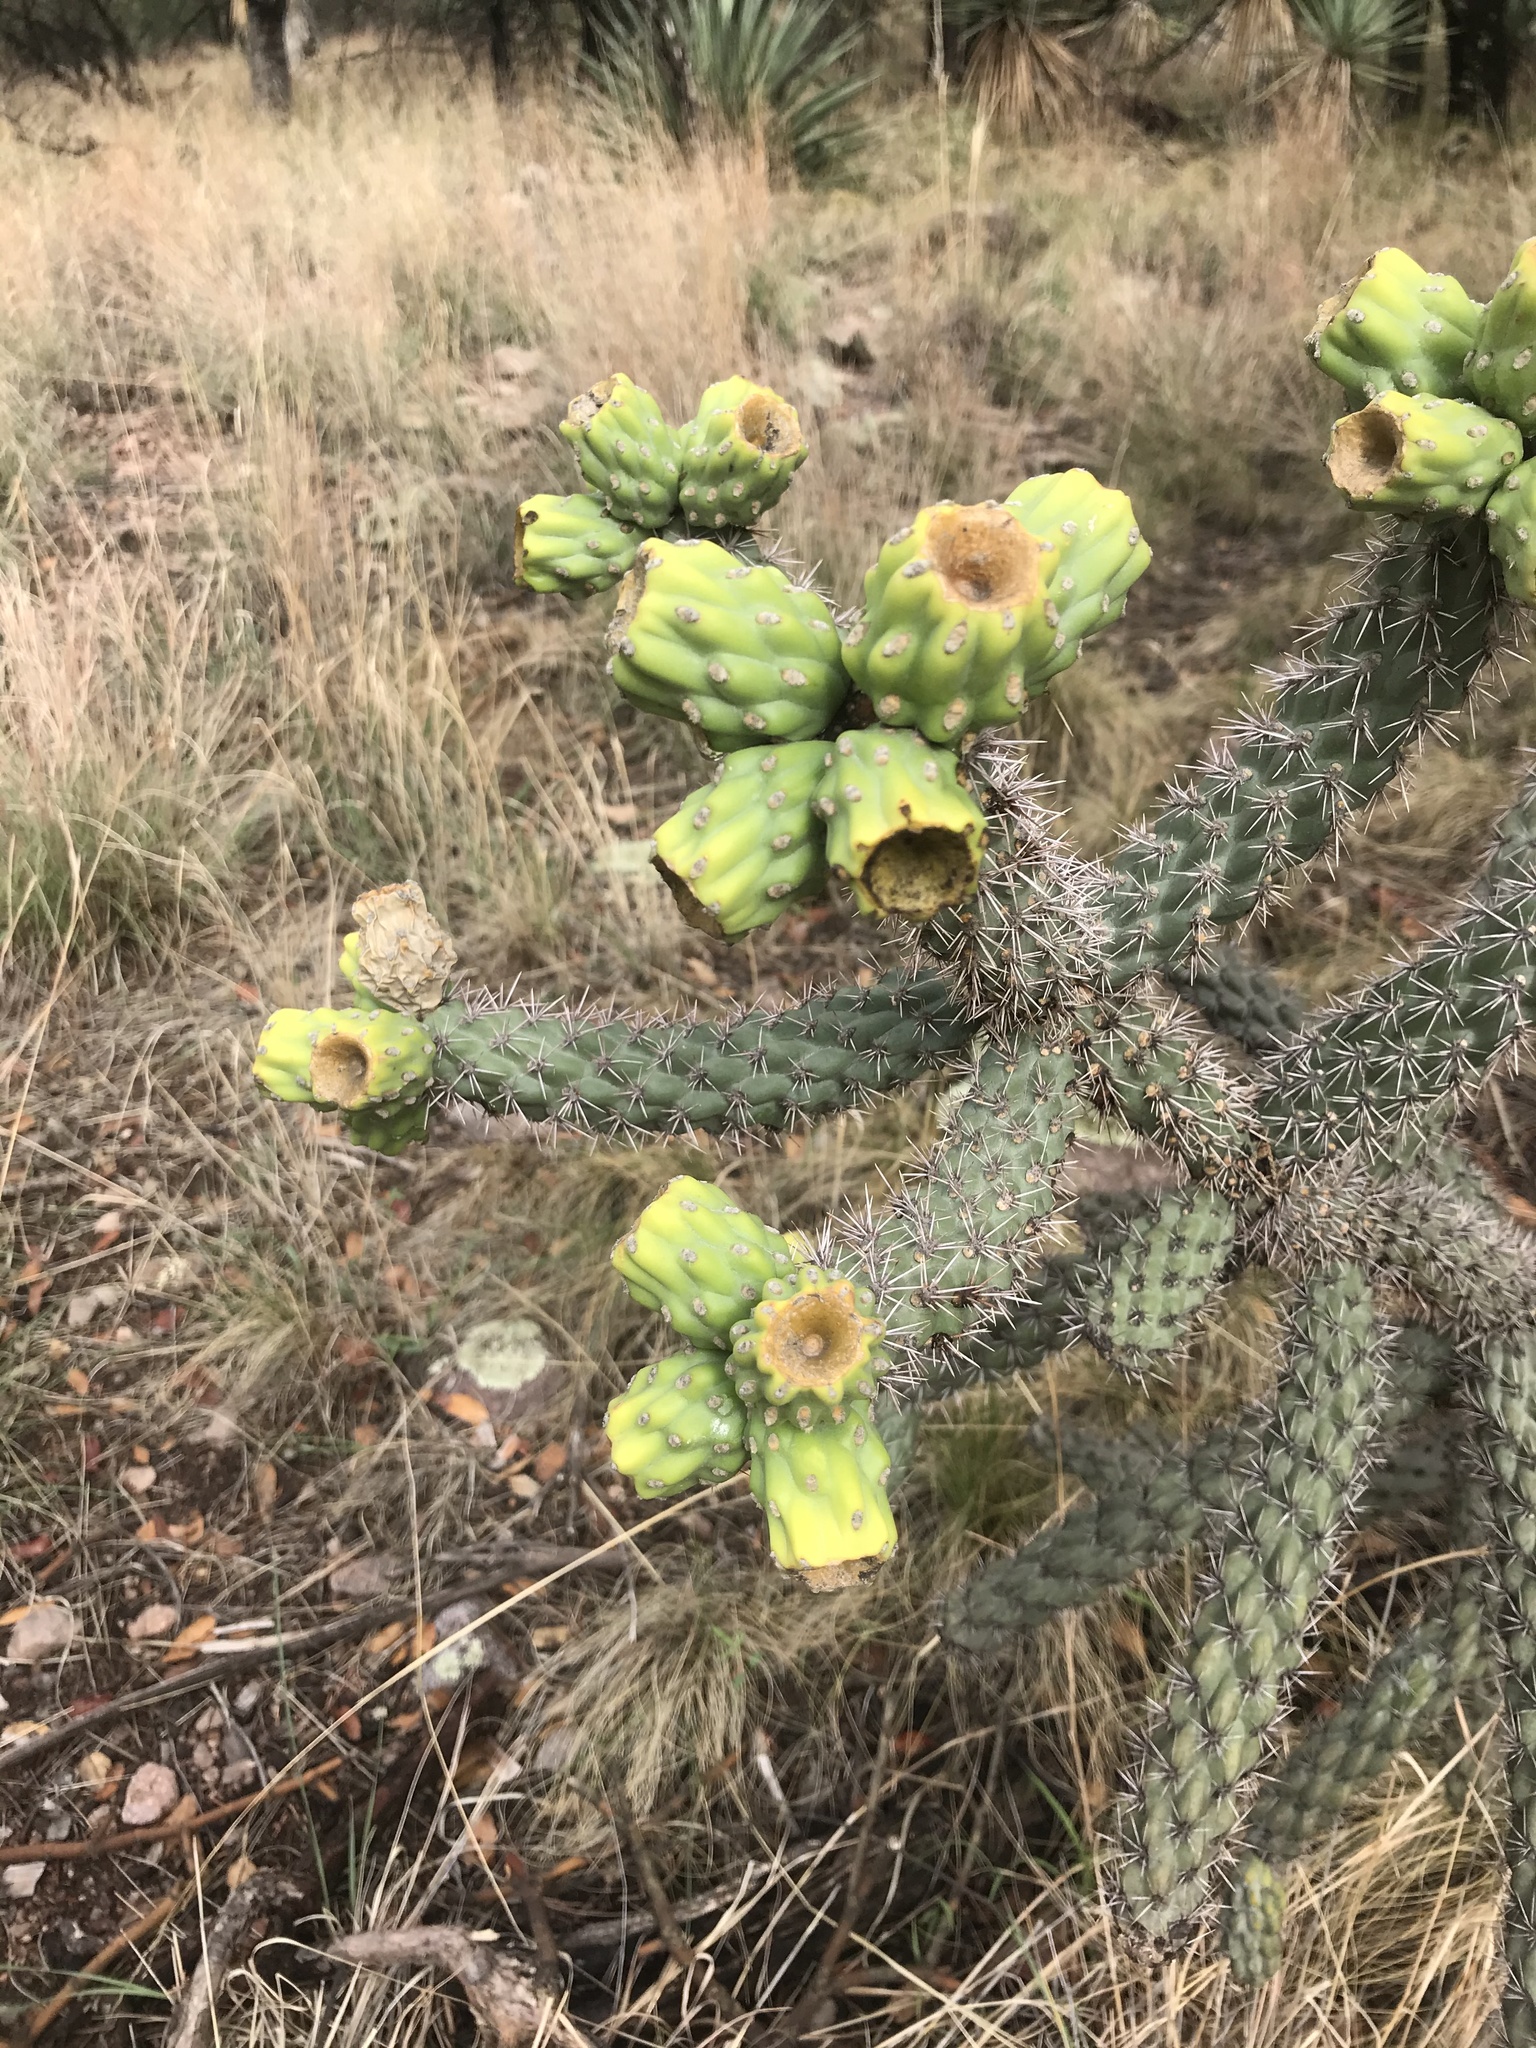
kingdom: Plantae
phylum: Tracheophyta
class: Magnoliopsida
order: Caryophyllales
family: Cactaceae
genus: Cylindropuntia
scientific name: Cylindropuntia imbricata
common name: Candelabrum cactus
